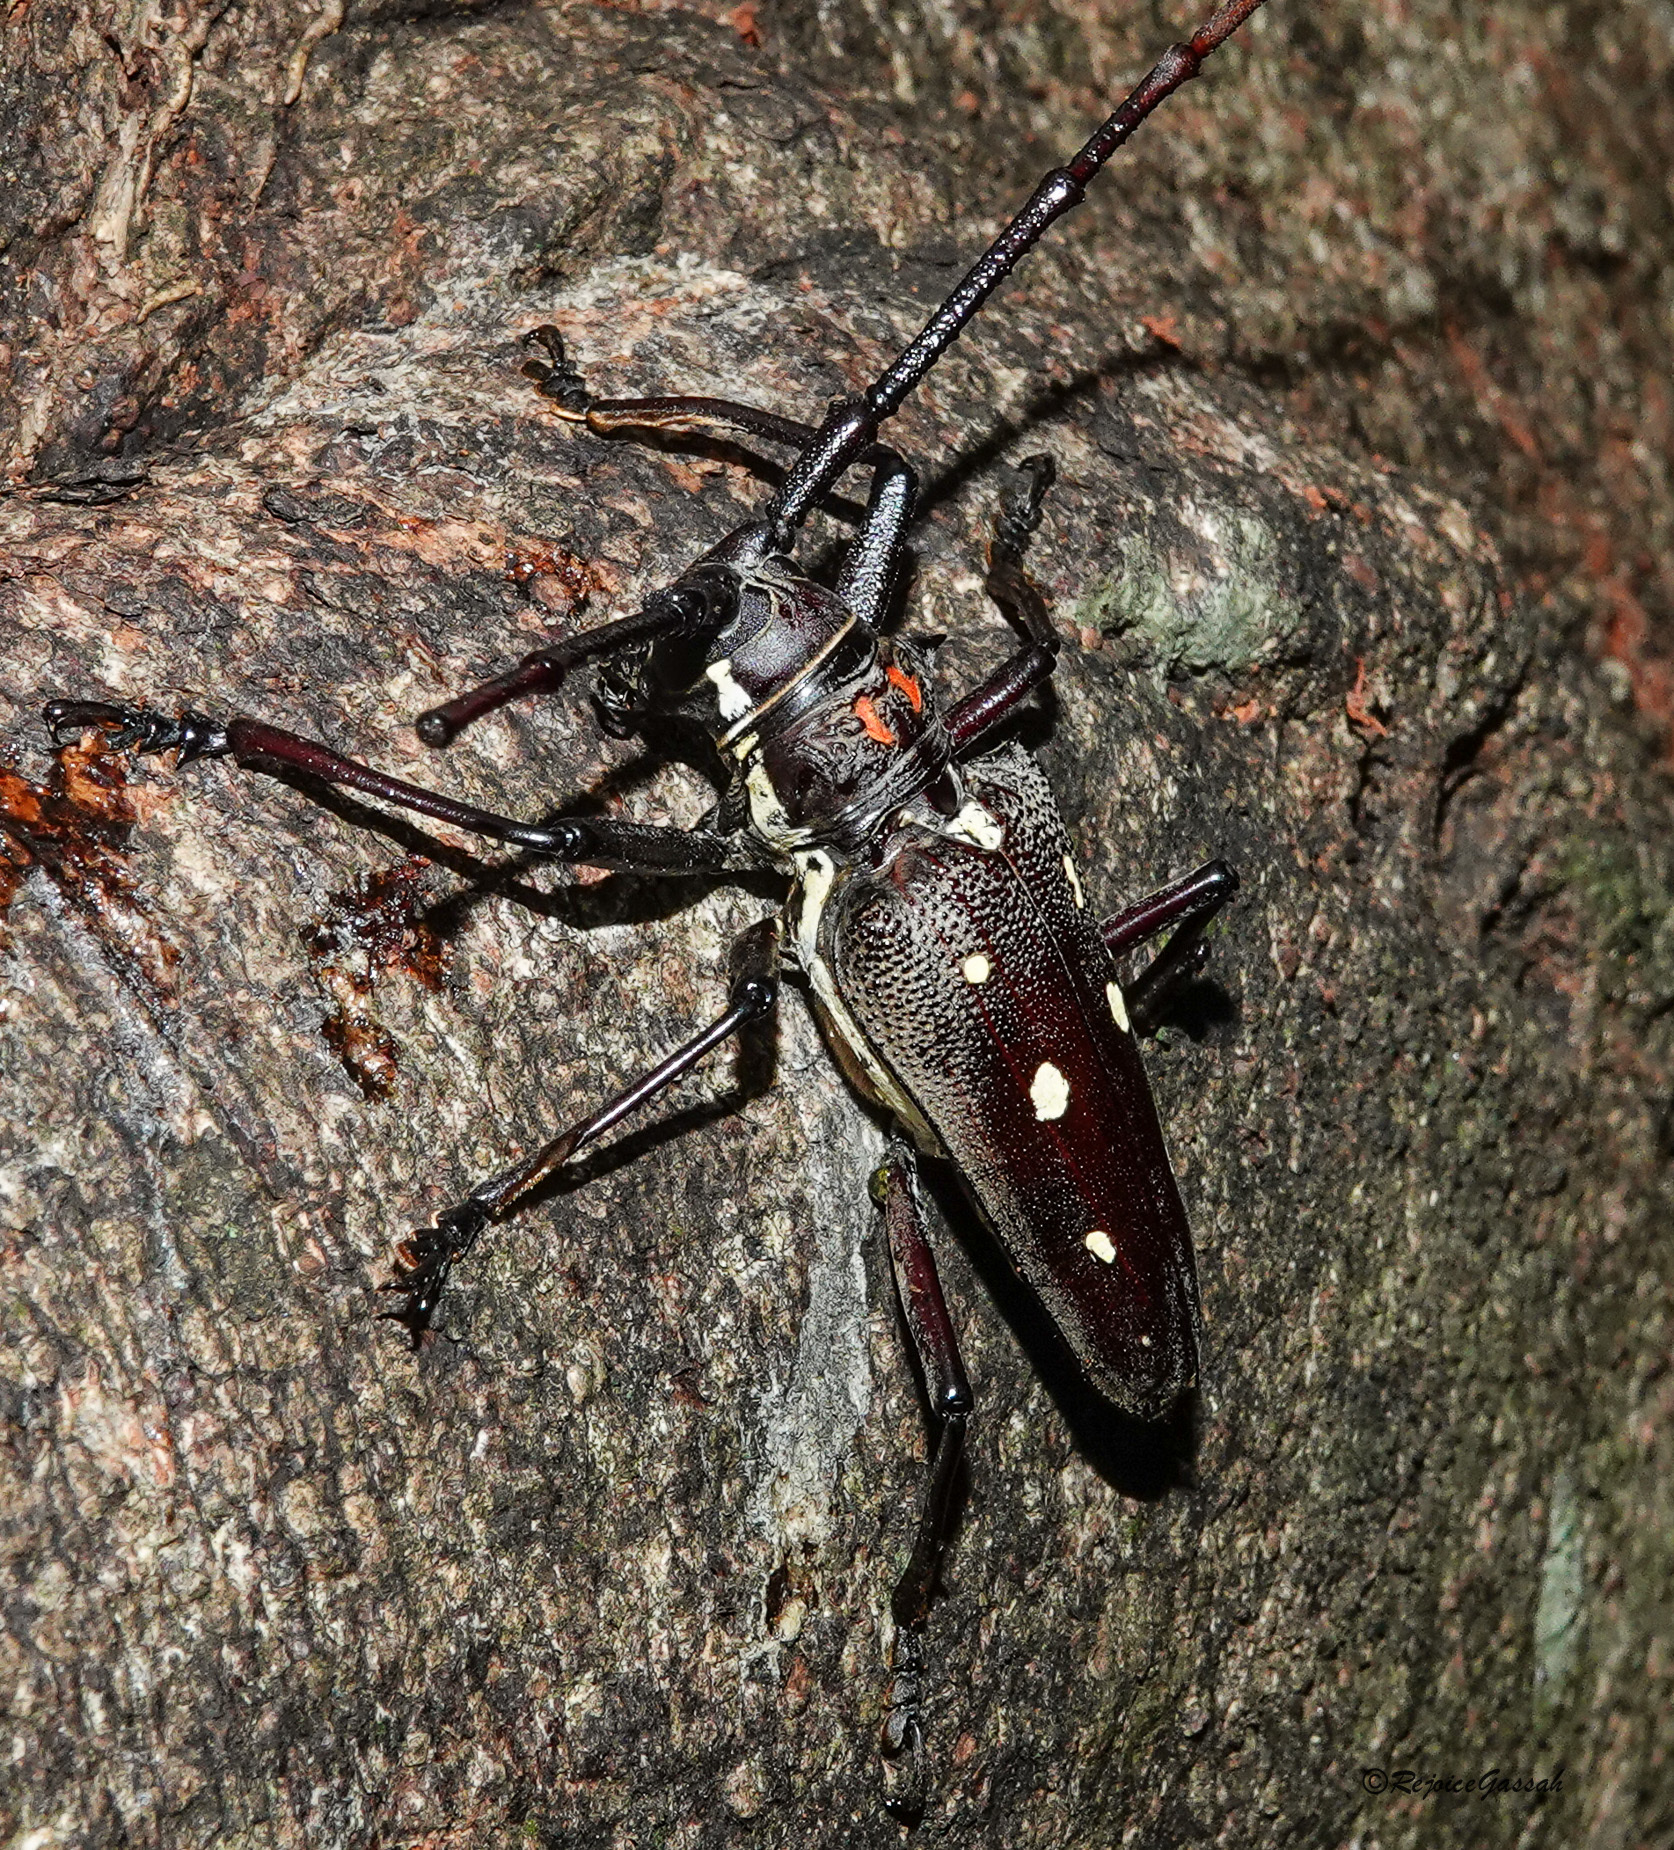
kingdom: Animalia
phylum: Arthropoda
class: Insecta
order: Coleoptera
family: Cerambycidae
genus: Batocera
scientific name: Batocera davidis
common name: Long-horned beetle
